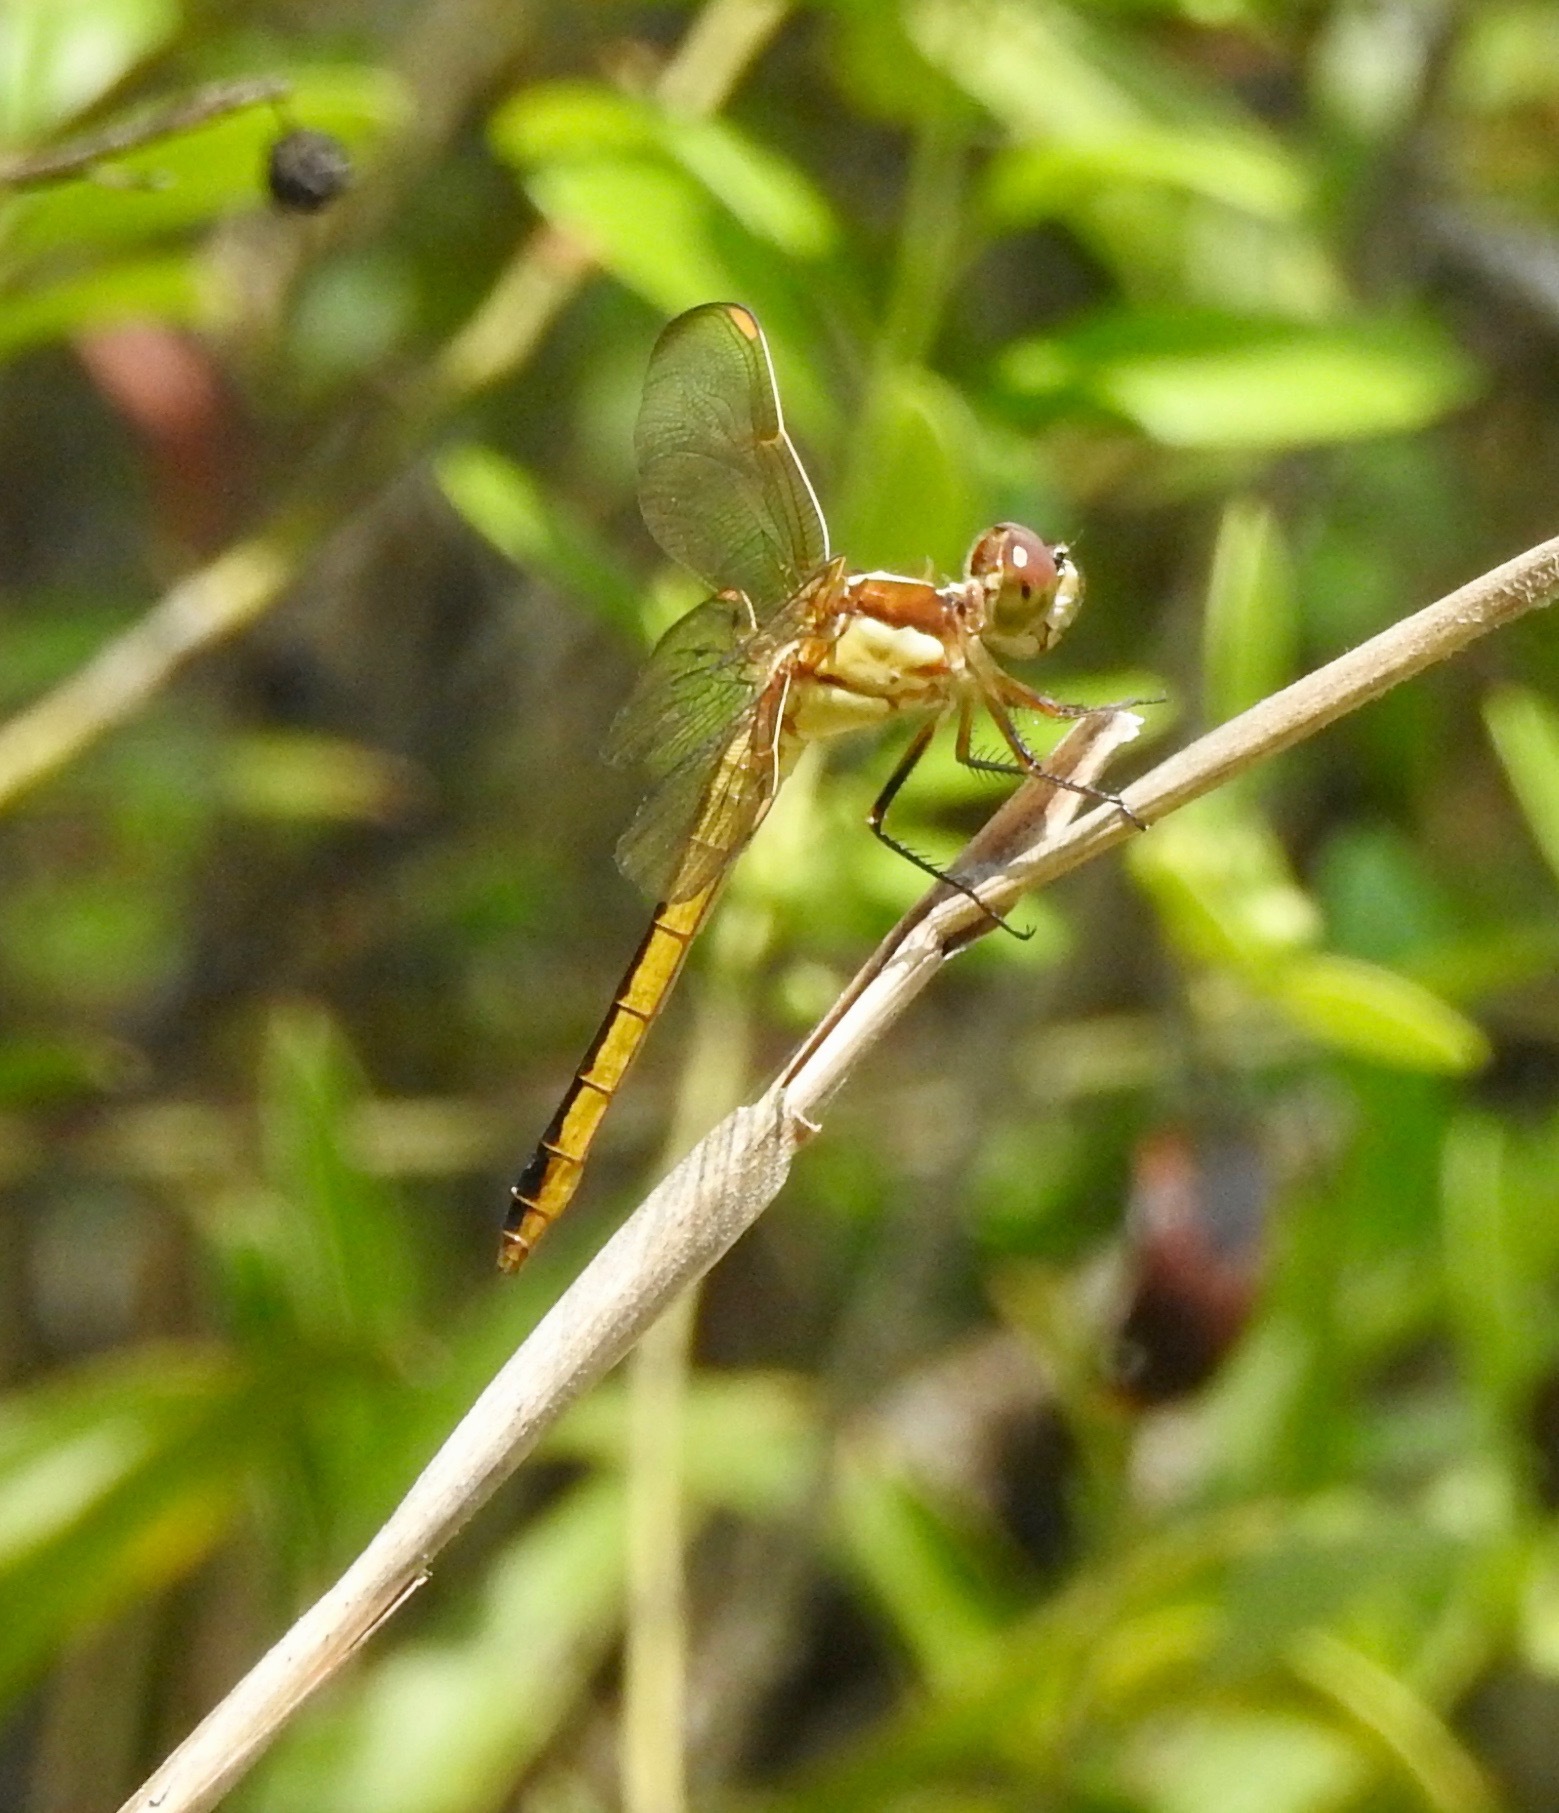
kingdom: Animalia
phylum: Arthropoda
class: Insecta
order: Odonata
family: Libellulidae
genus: Libellula
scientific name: Libellula auripennis
